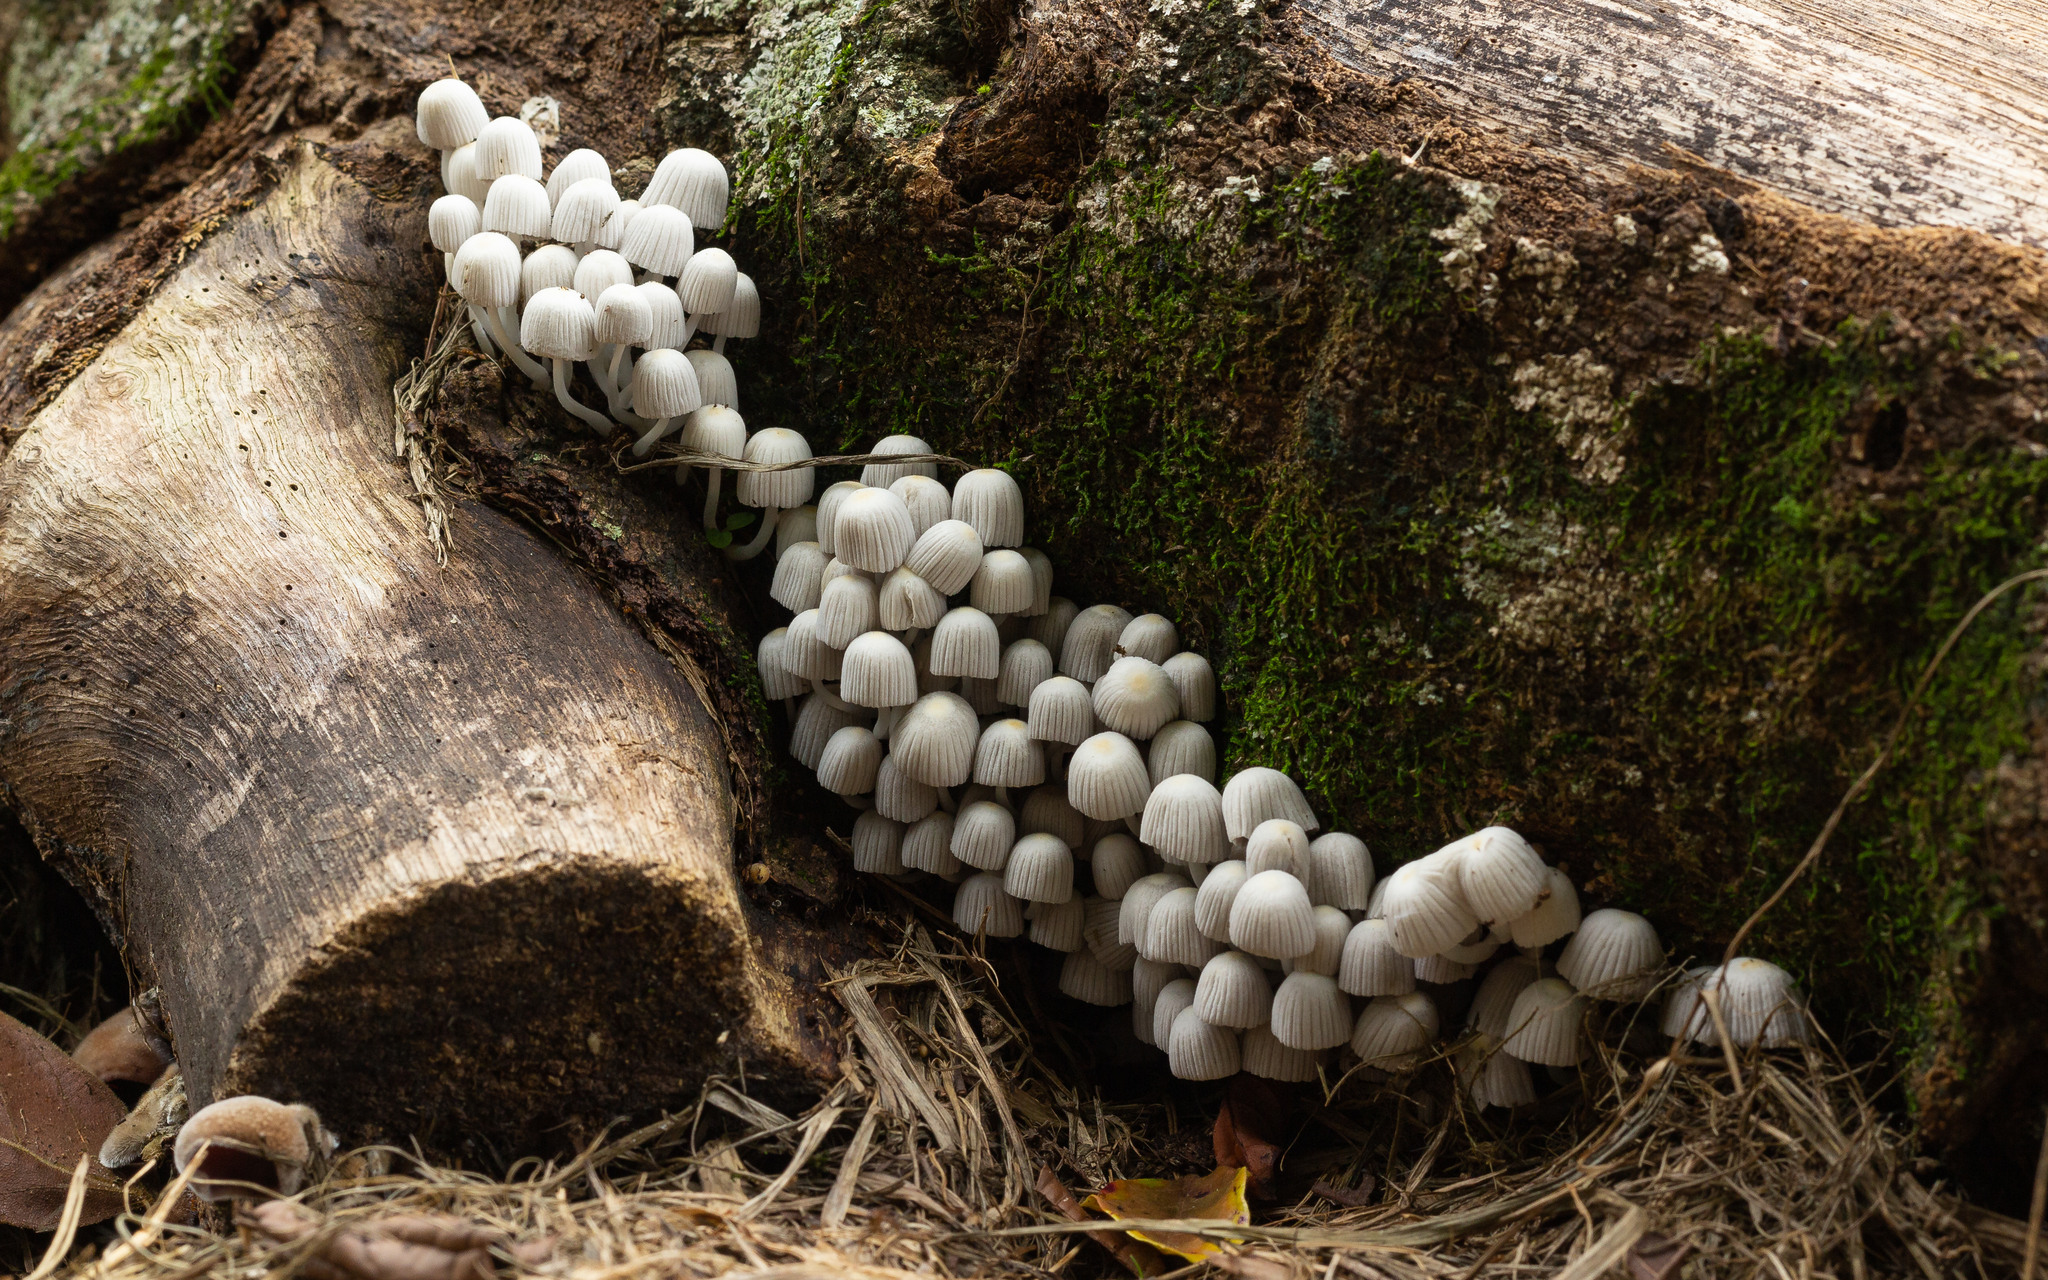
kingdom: Fungi
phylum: Basidiomycota
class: Agaricomycetes
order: Agaricales
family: Psathyrellaceae
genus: Coprinellus
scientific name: Coprinellus disseminatus
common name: Fairies' bonnets
